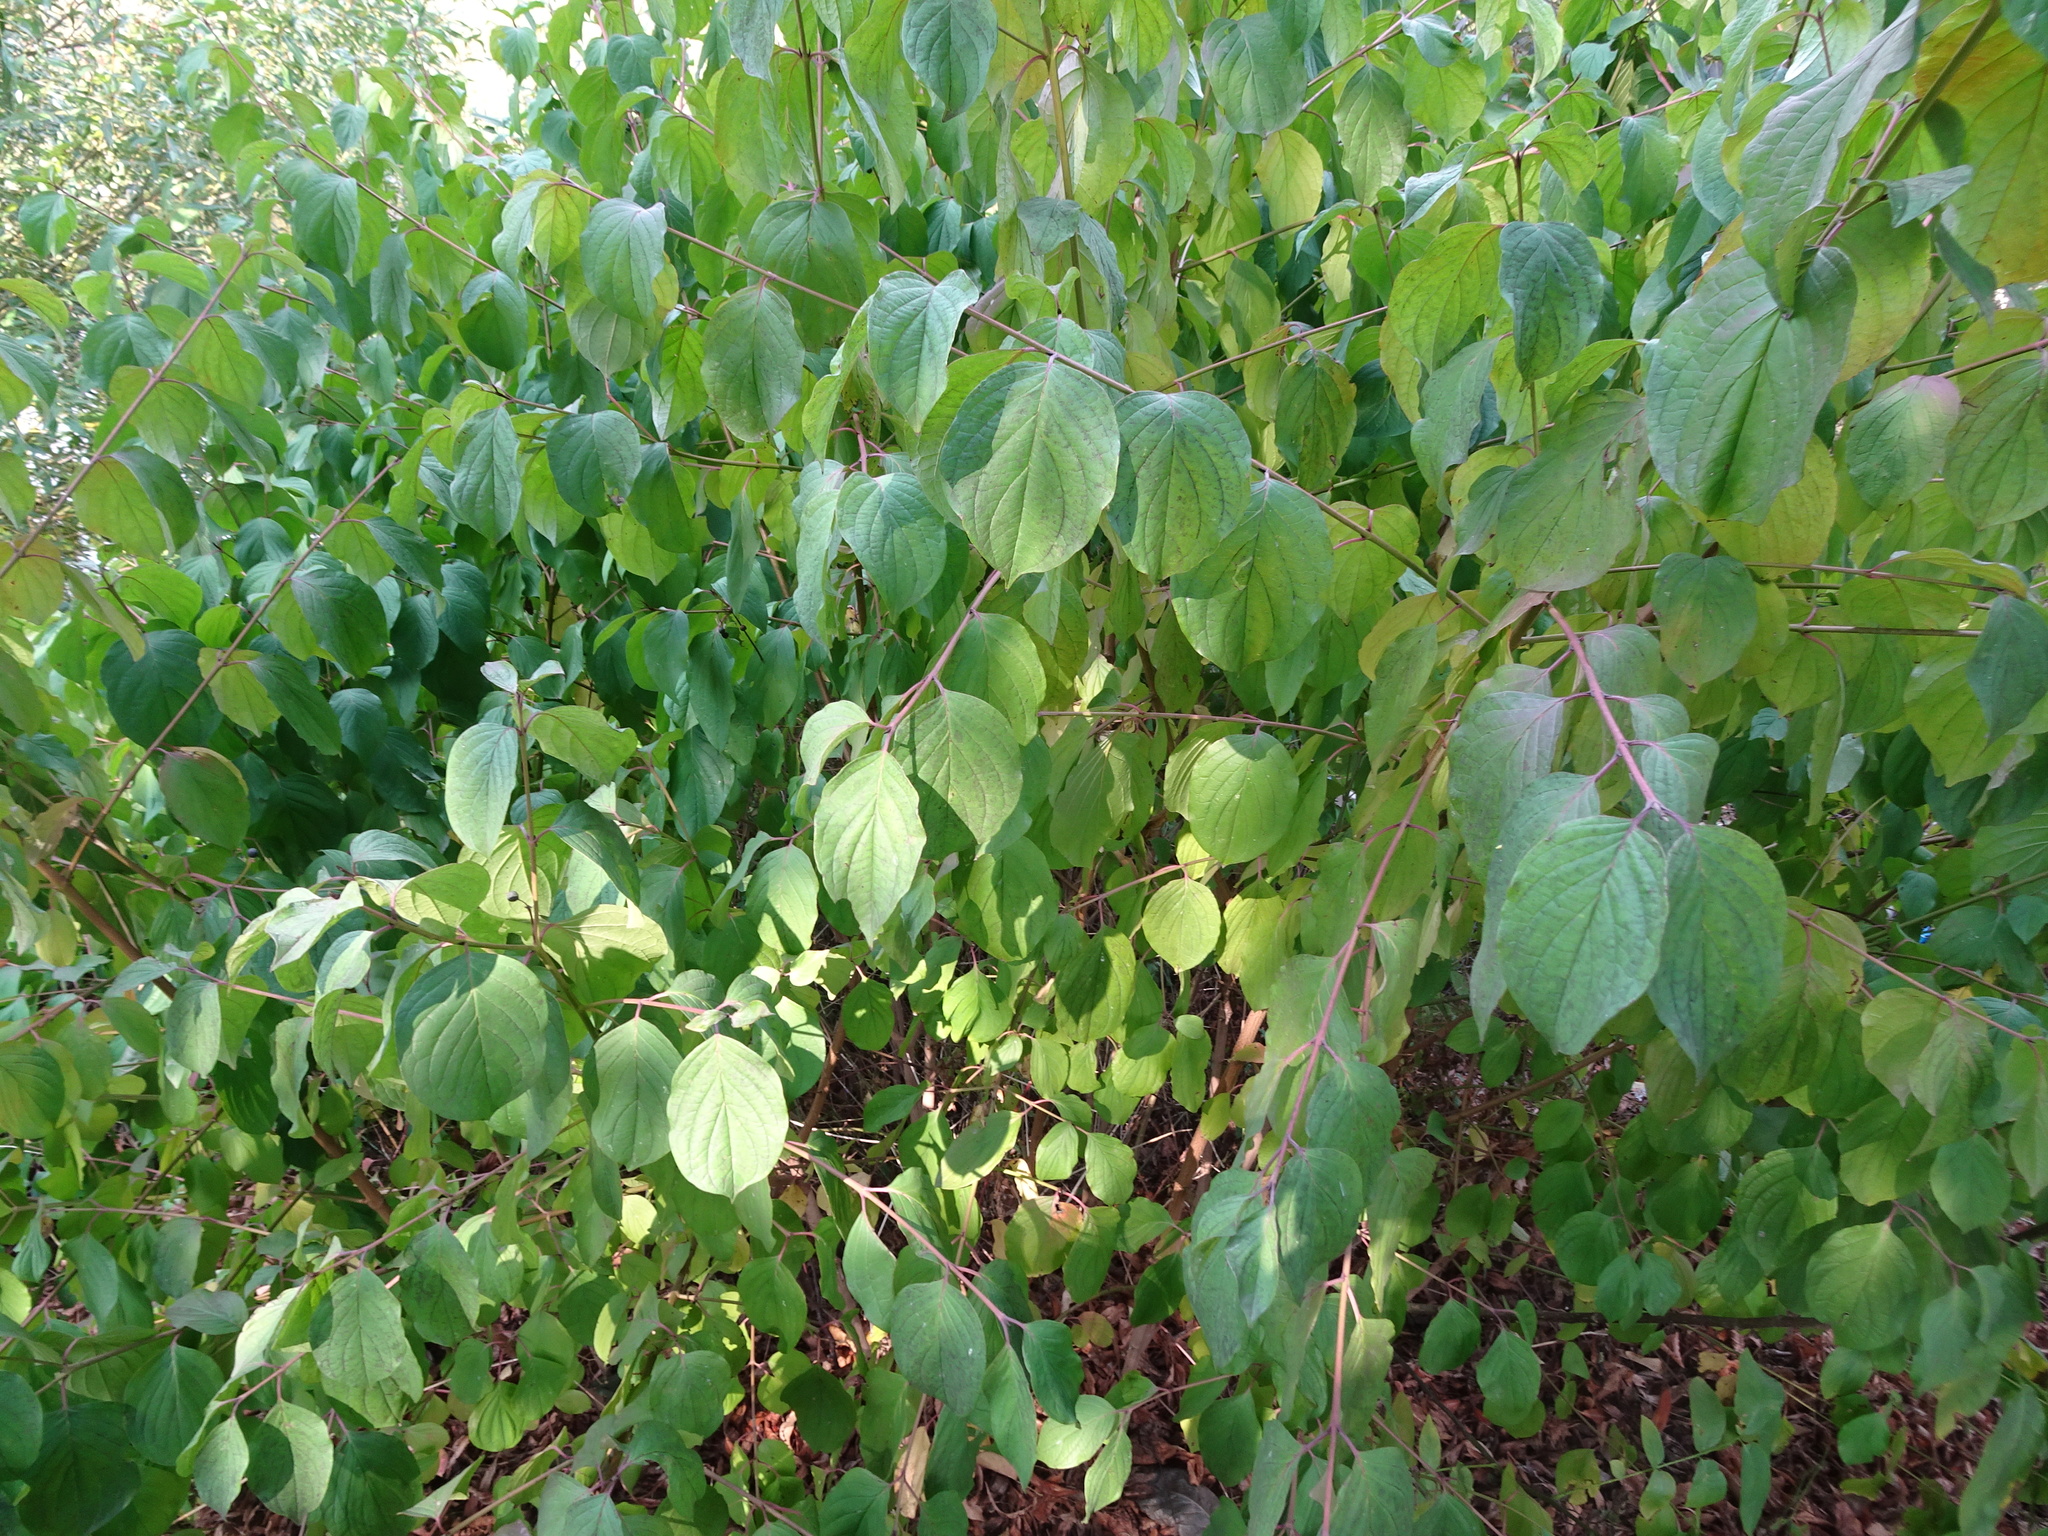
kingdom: Plantae
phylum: Tracheophyta
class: Magnoliopsida
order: Cornales
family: Cornaceae
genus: Cornus
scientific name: Cornus sanguinea
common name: Dogwood
